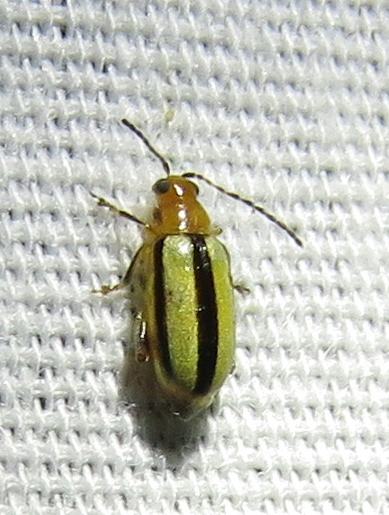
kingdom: Animalia
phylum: Arthropoda
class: Insecta
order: Coleoptera
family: Chrysomelidae
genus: Systena
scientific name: Systena gracilenta
